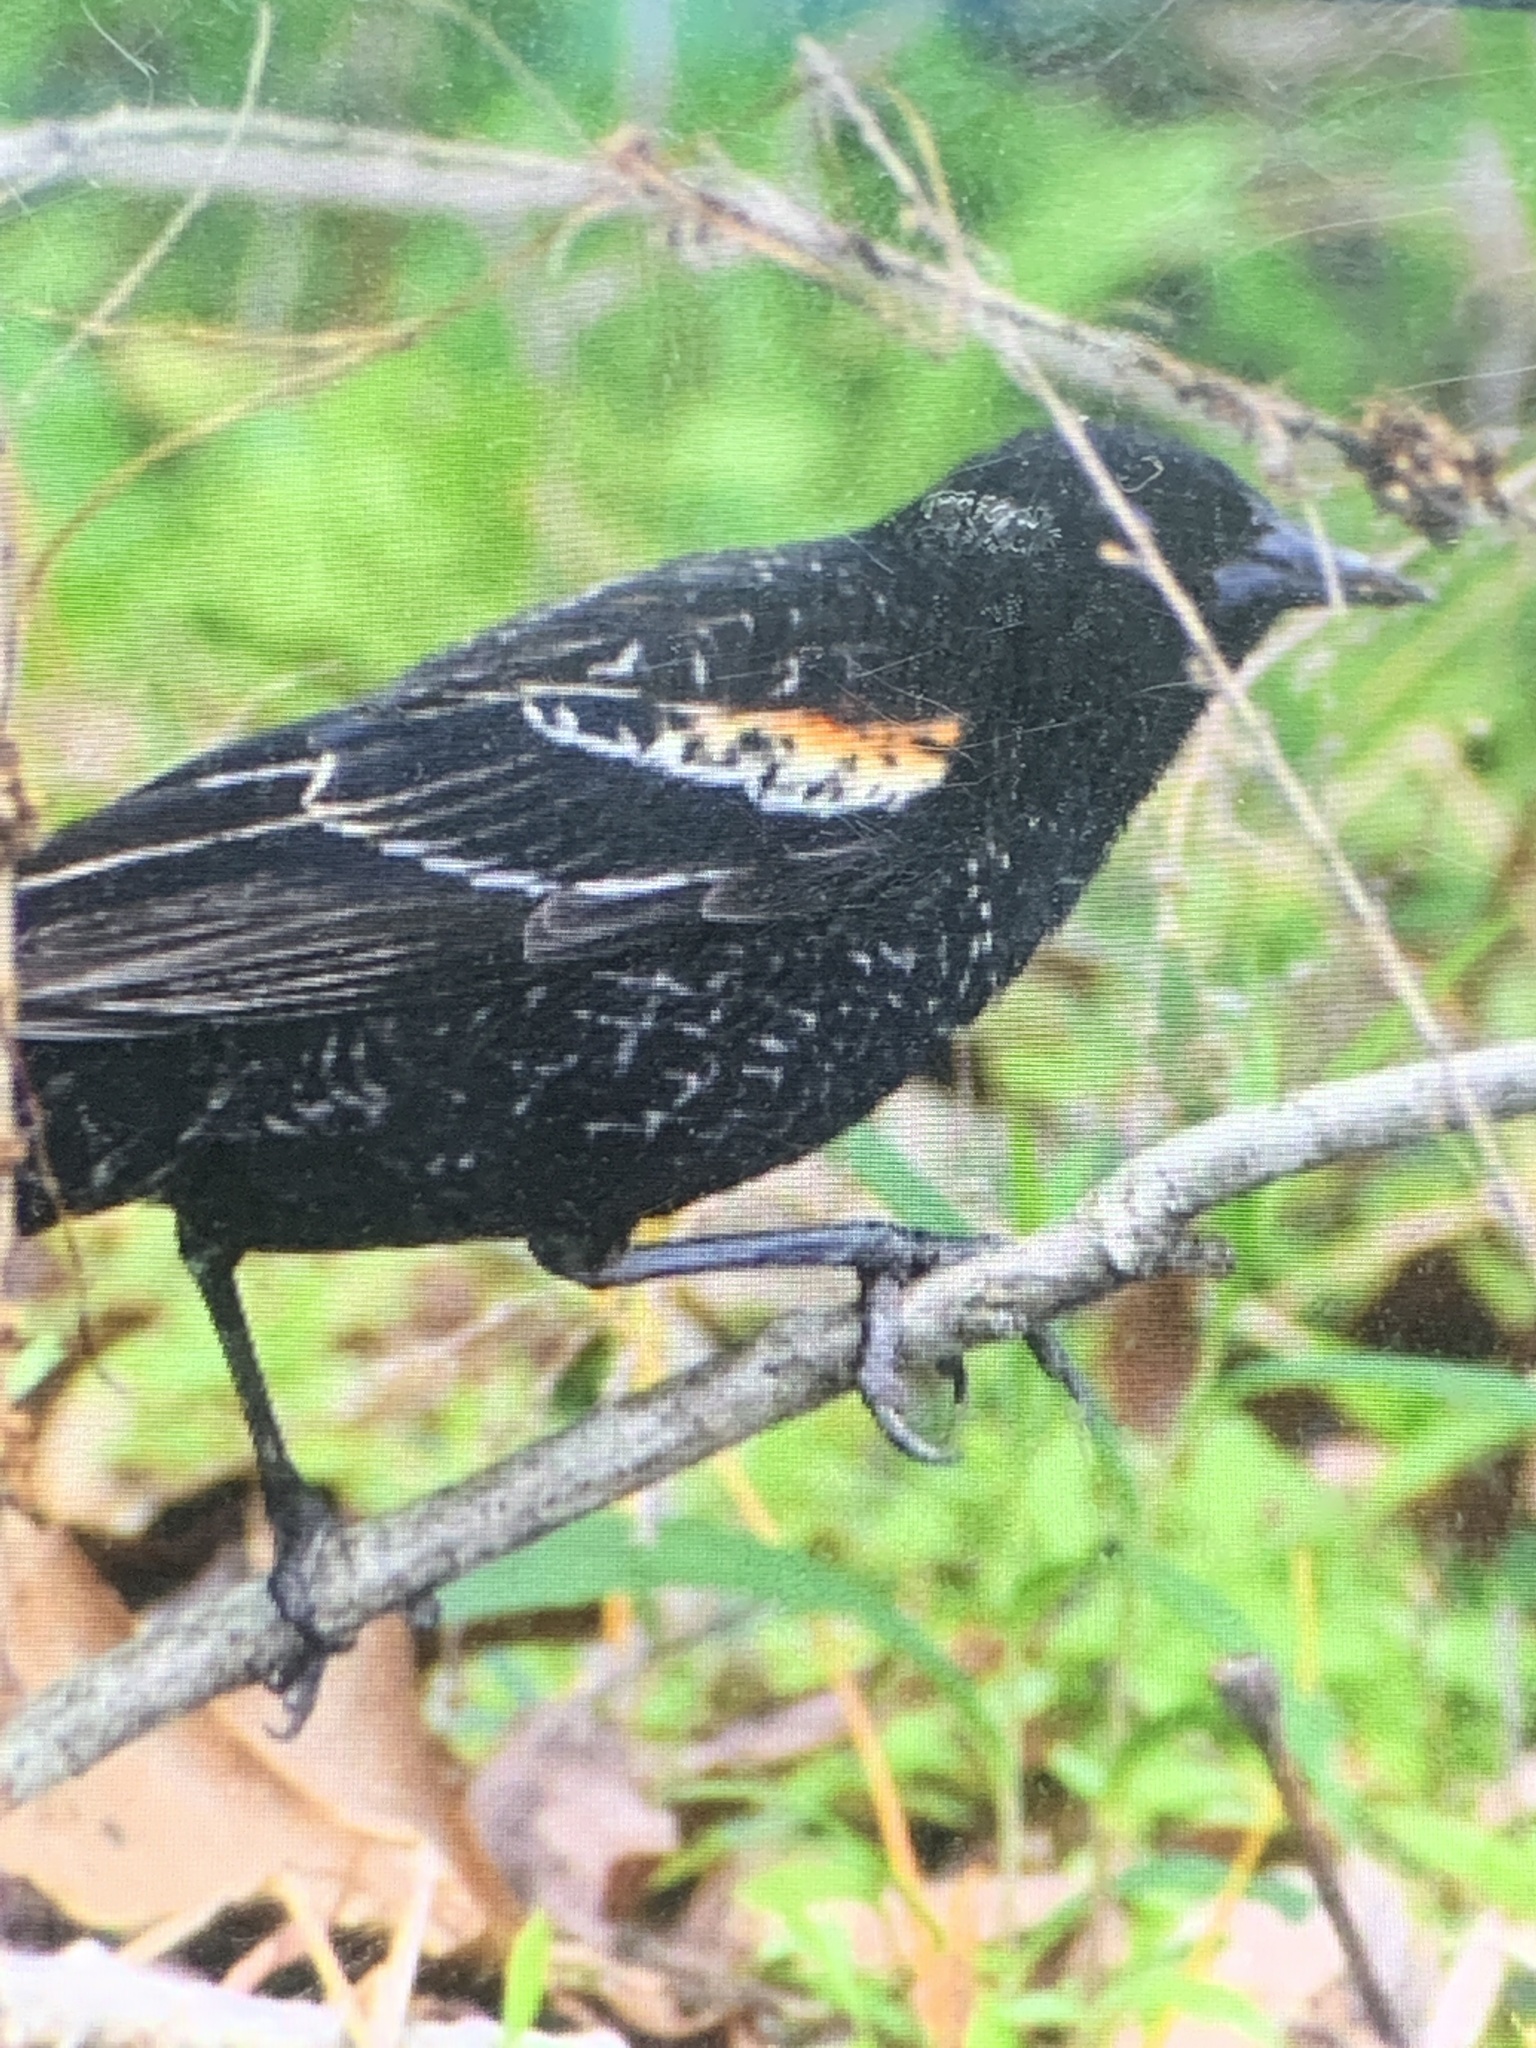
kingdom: Animalia
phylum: Chordata
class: Aves
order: Passeriformes
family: Icteridae
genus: Agelaius
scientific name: Agelaius phoeniceus
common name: Red-winged blackbird
